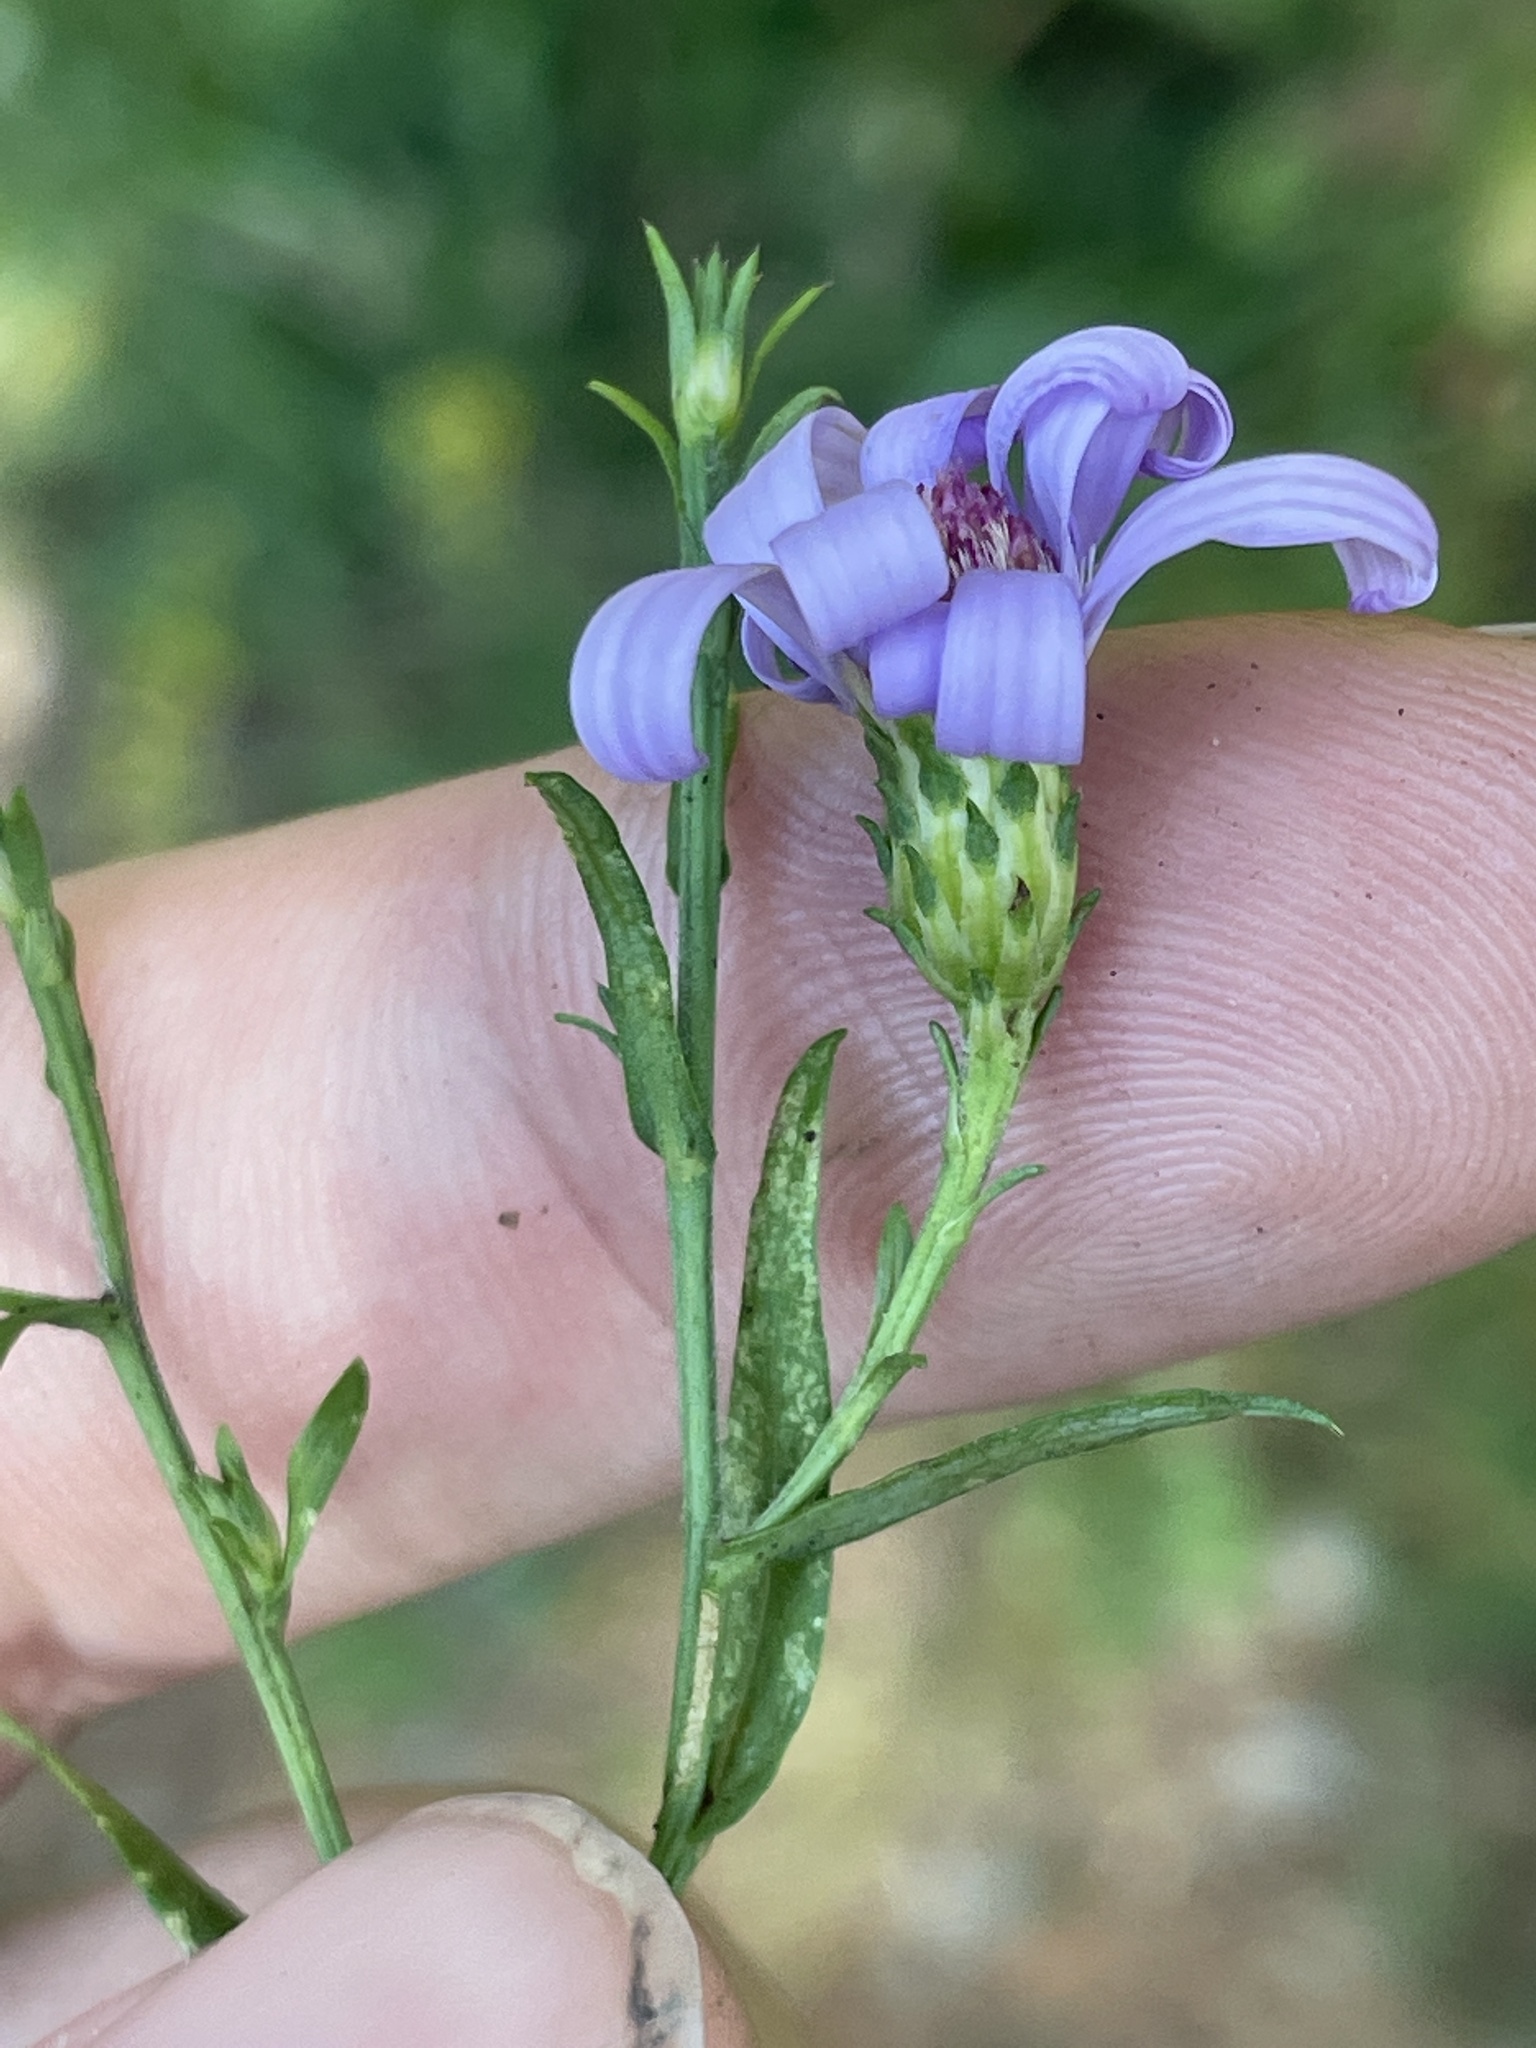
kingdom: Plantae
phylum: Tracheophyta
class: Magnoliopsida
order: Asterales
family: Asteraceae
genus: Symphyotrichum
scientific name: Symphyotrichum laeve
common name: Glaucous aster
